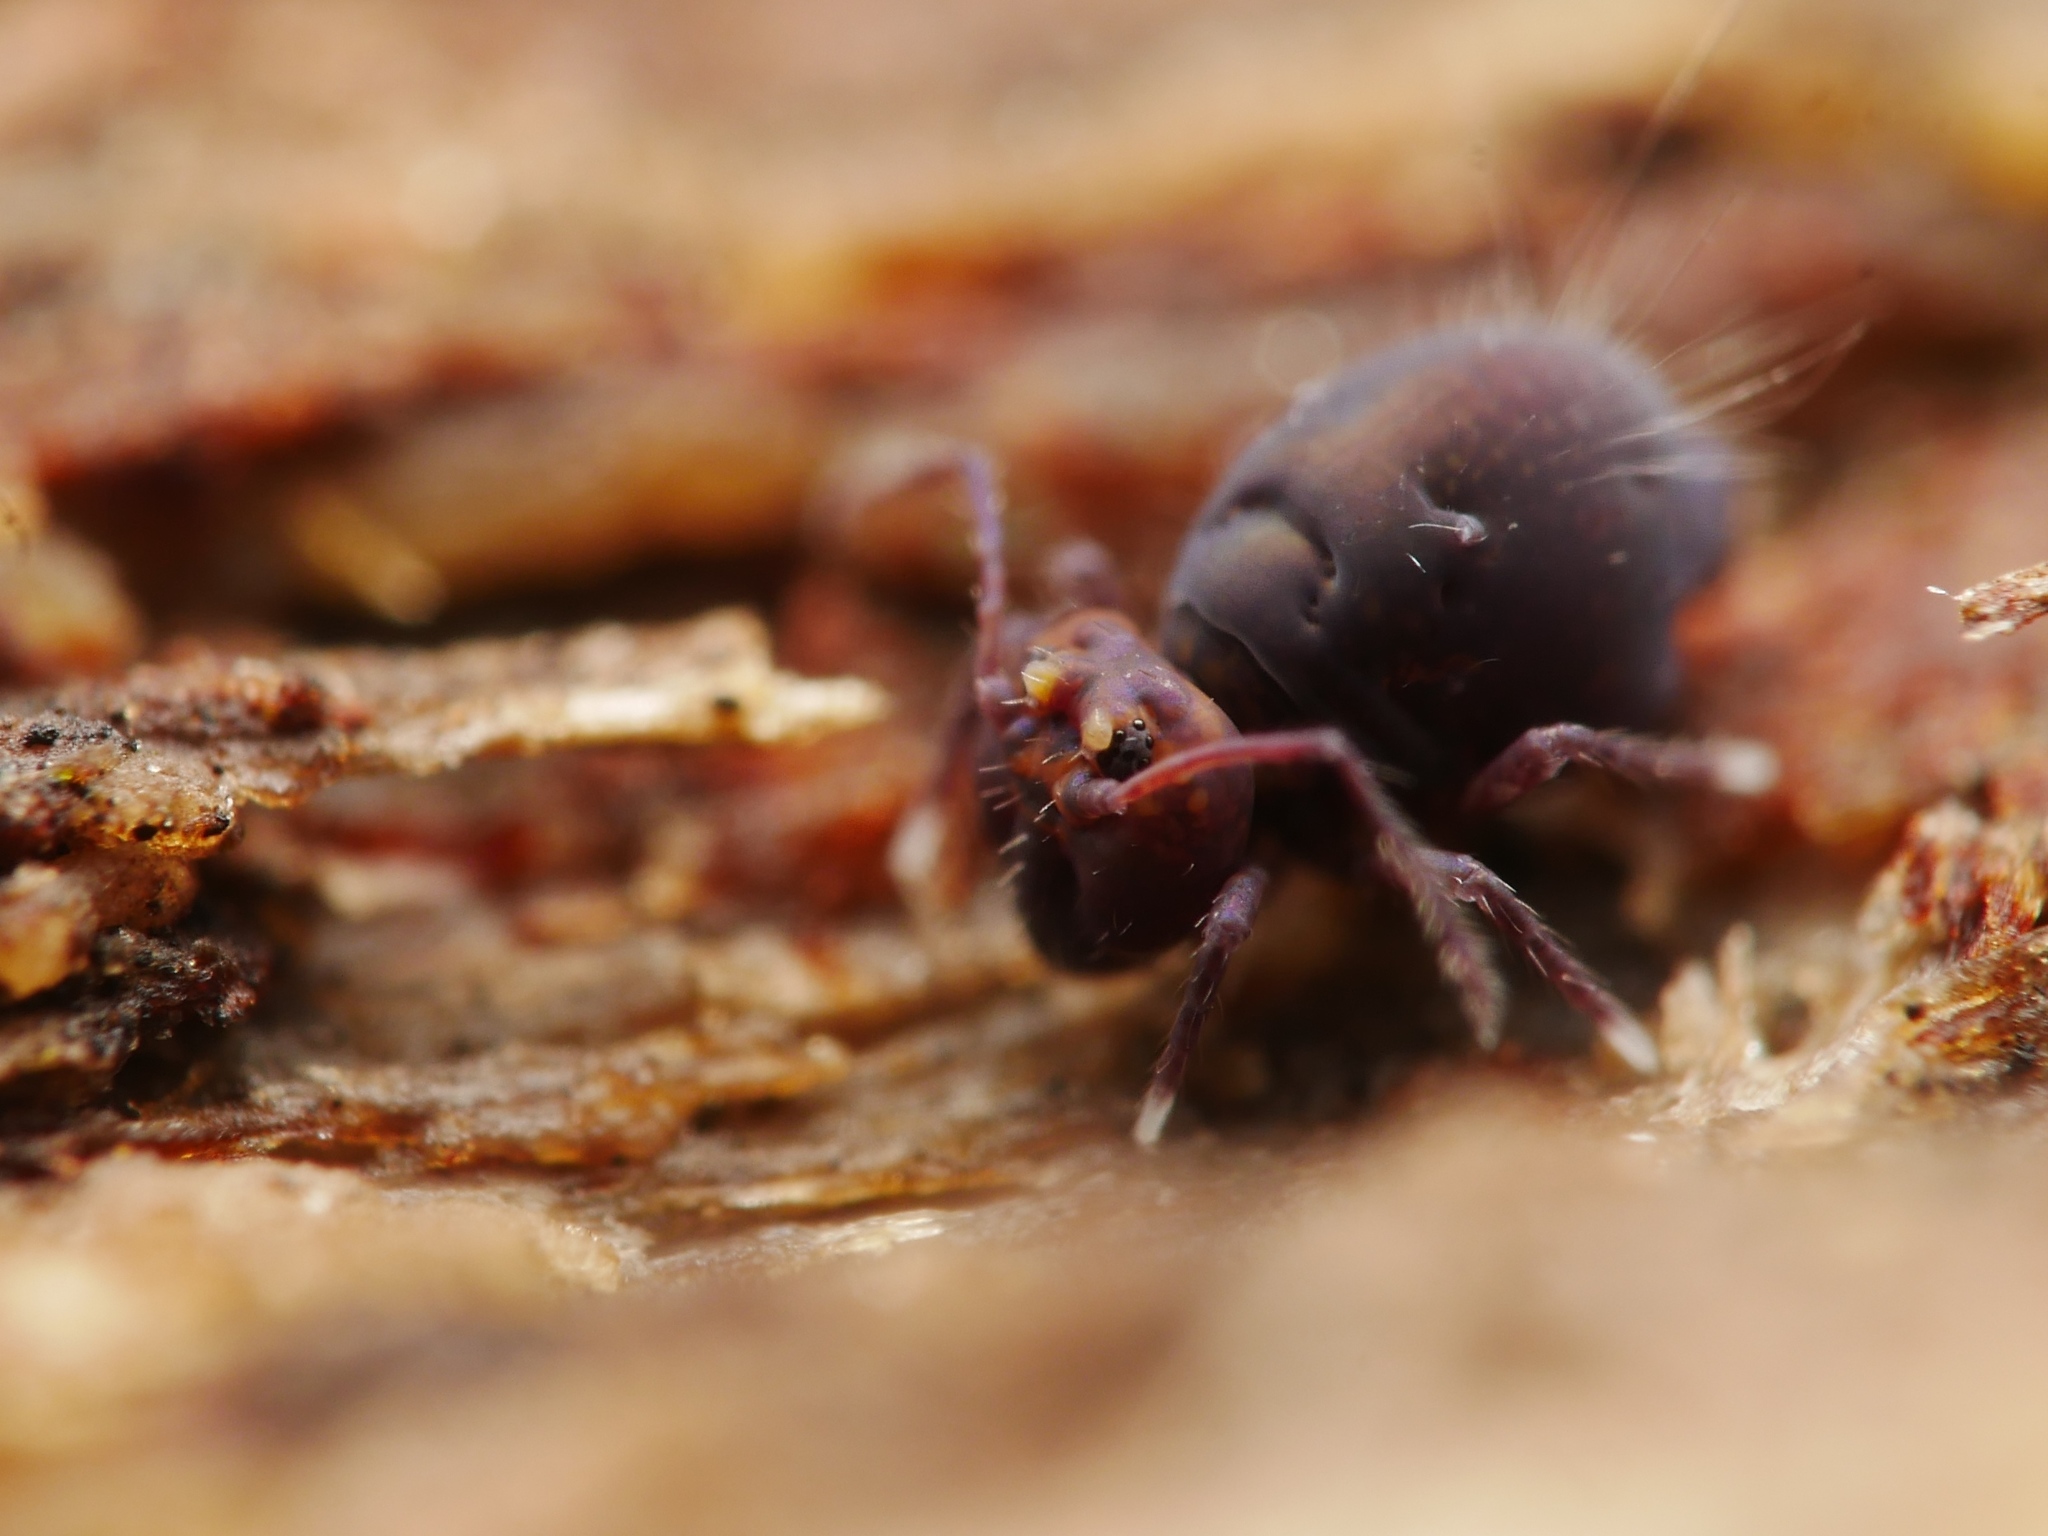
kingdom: Animalia
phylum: Arthropoda
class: Collembola
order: Symphypleona
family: Dicyrtomidae
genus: Dicyrtoma
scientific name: Dicyrtoma fusca
